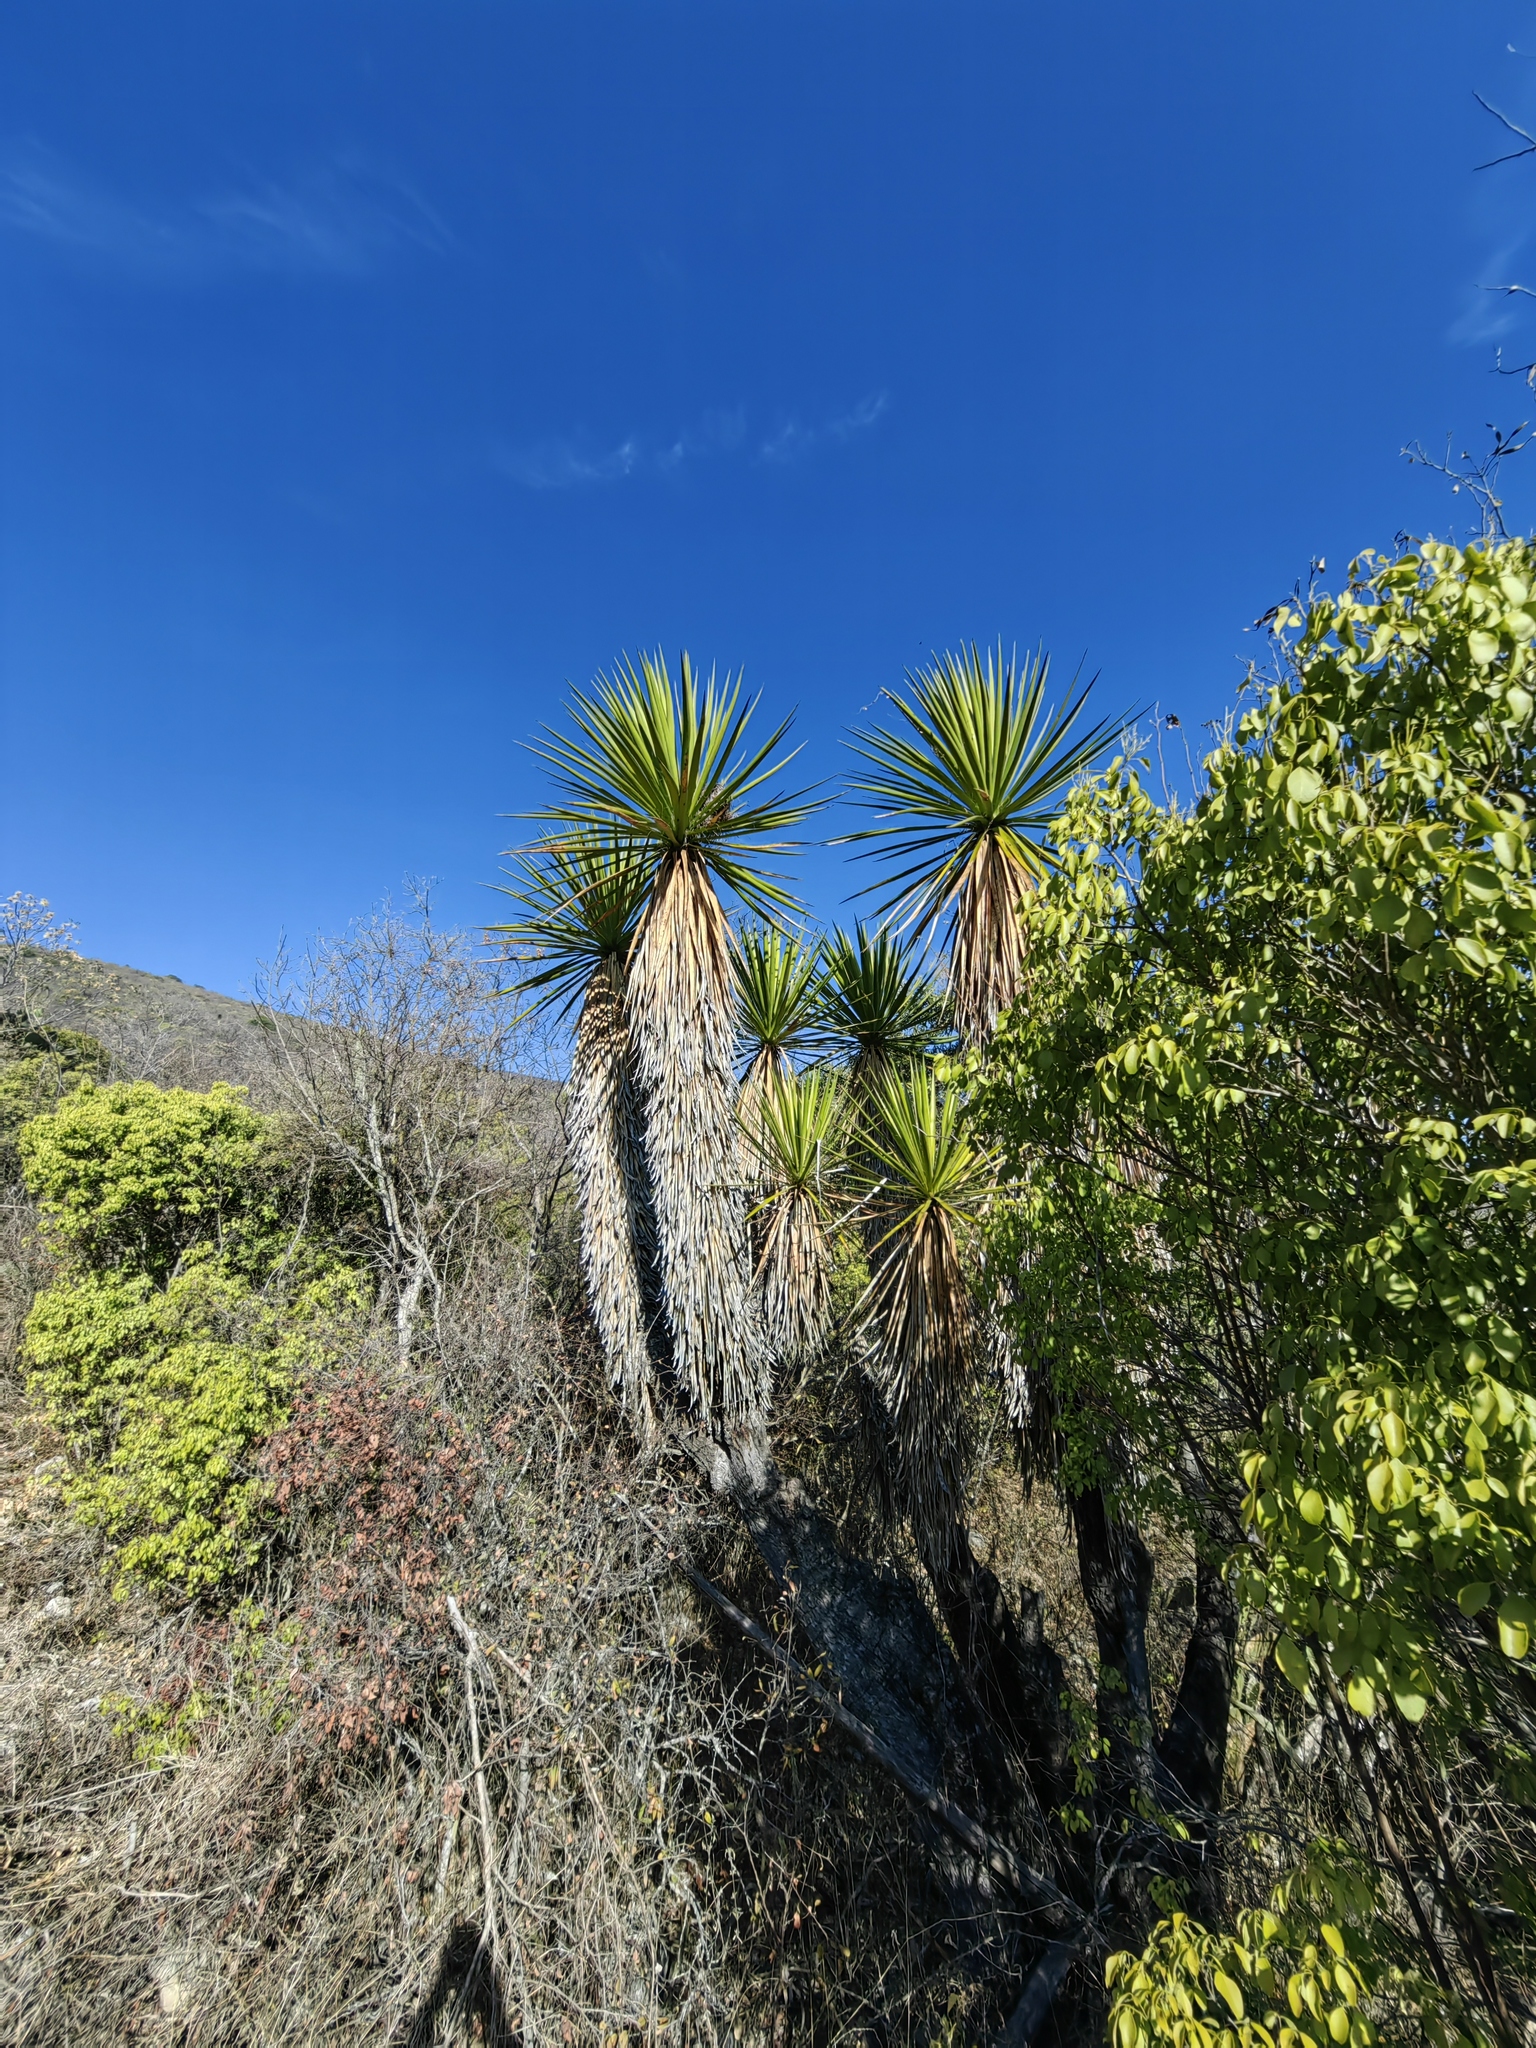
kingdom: Plantae
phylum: Tracheophyta
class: Liliopsida
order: Asparagales
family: Asparagaceae
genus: Yucca
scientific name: Yucca gigantea
